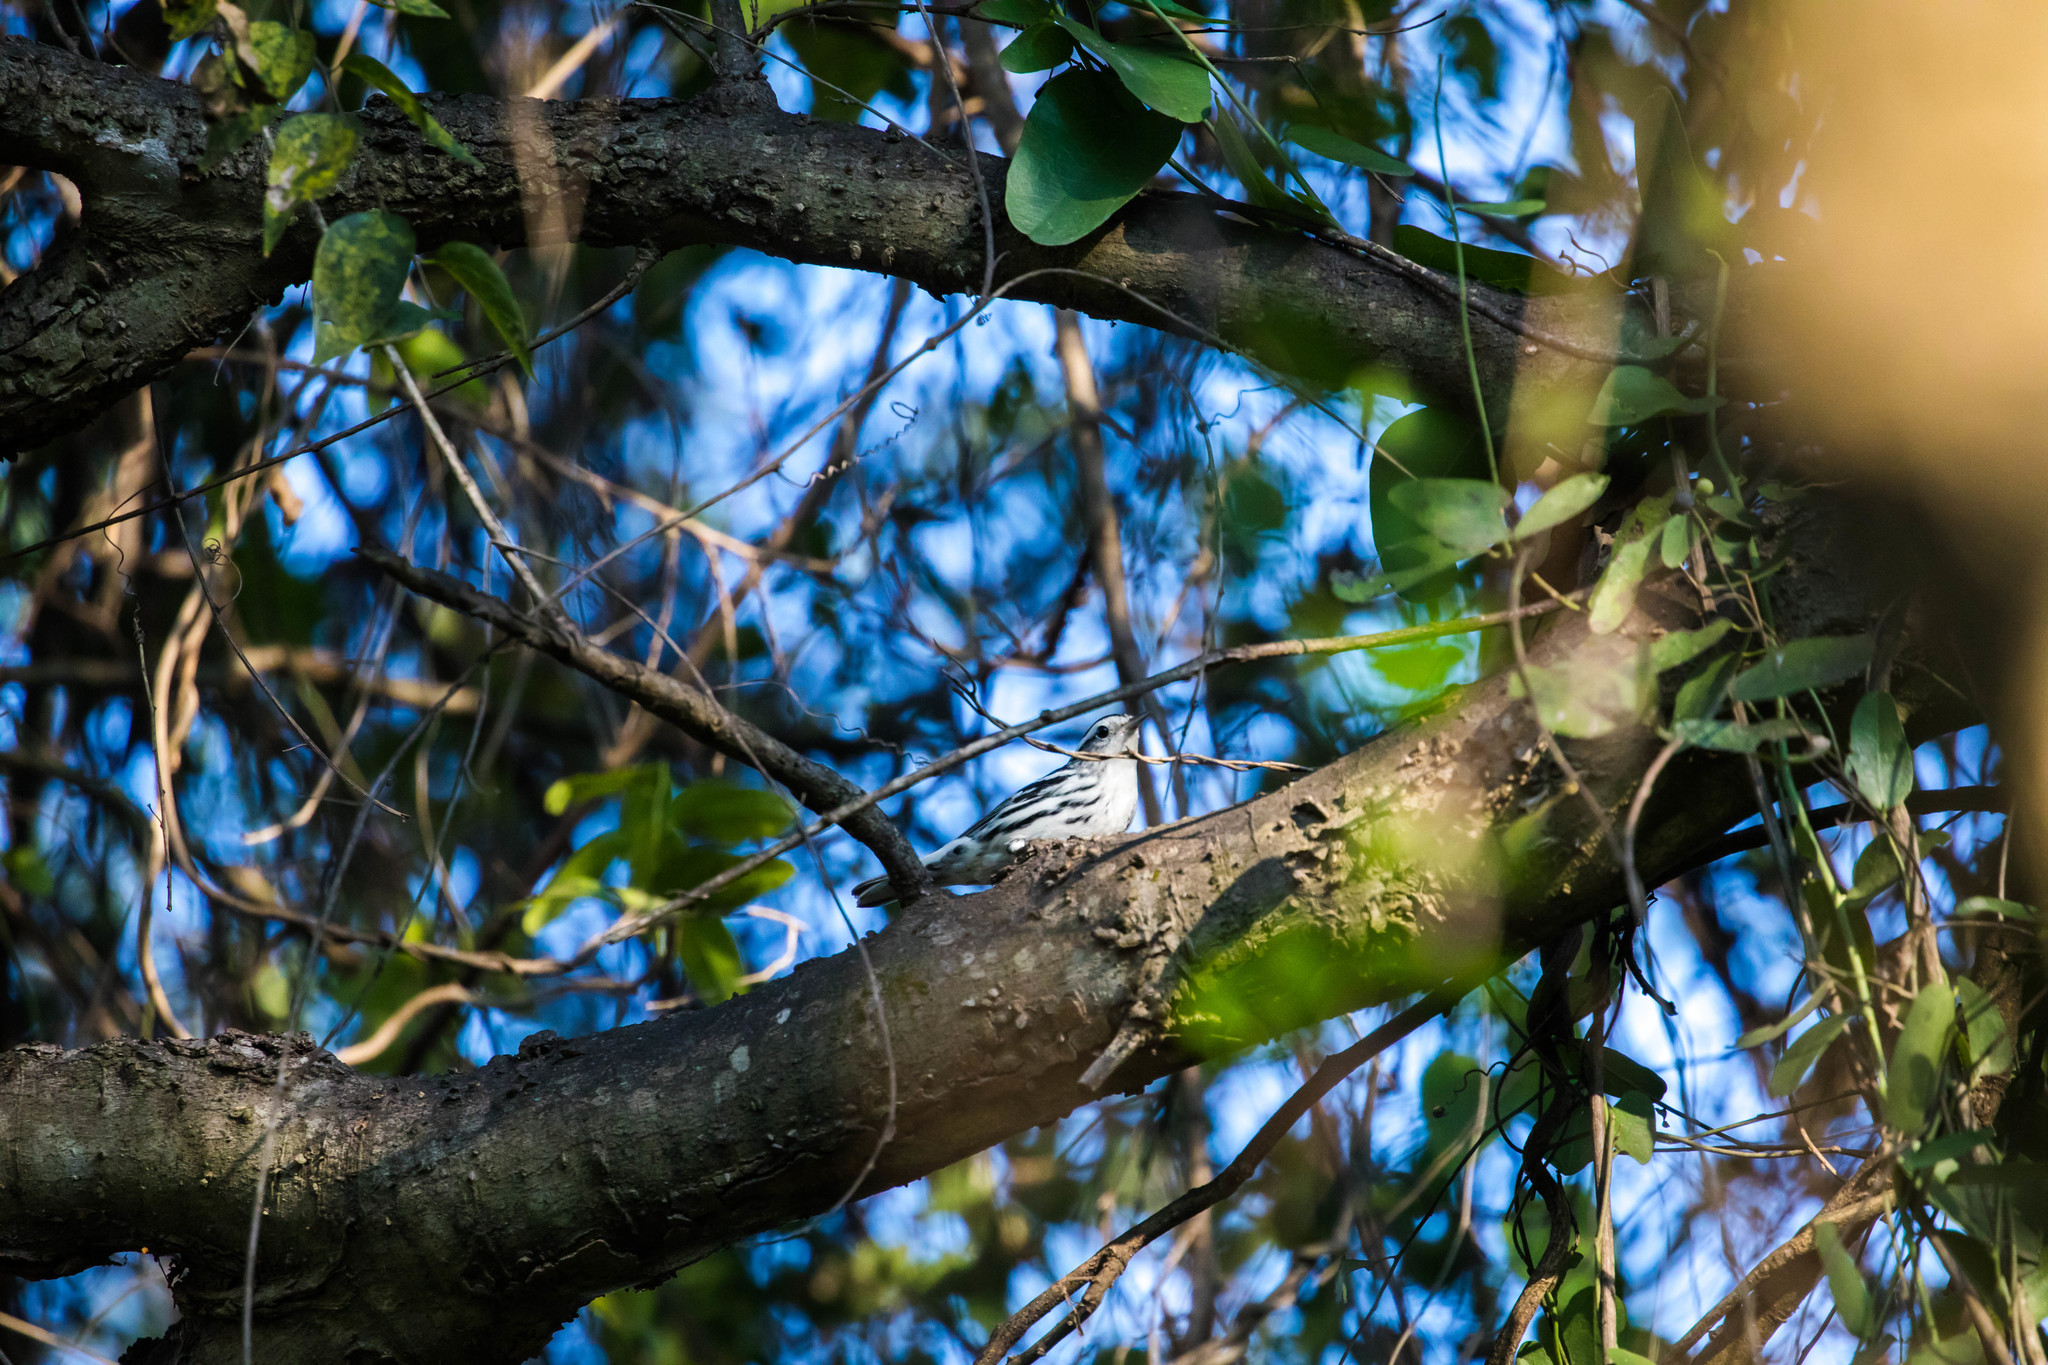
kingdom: Animalia
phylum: Chordata
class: Aves
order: Passeriformes
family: Parulidae
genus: Mniotilta
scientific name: Mniotilta varia
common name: Black-and-white warbler
